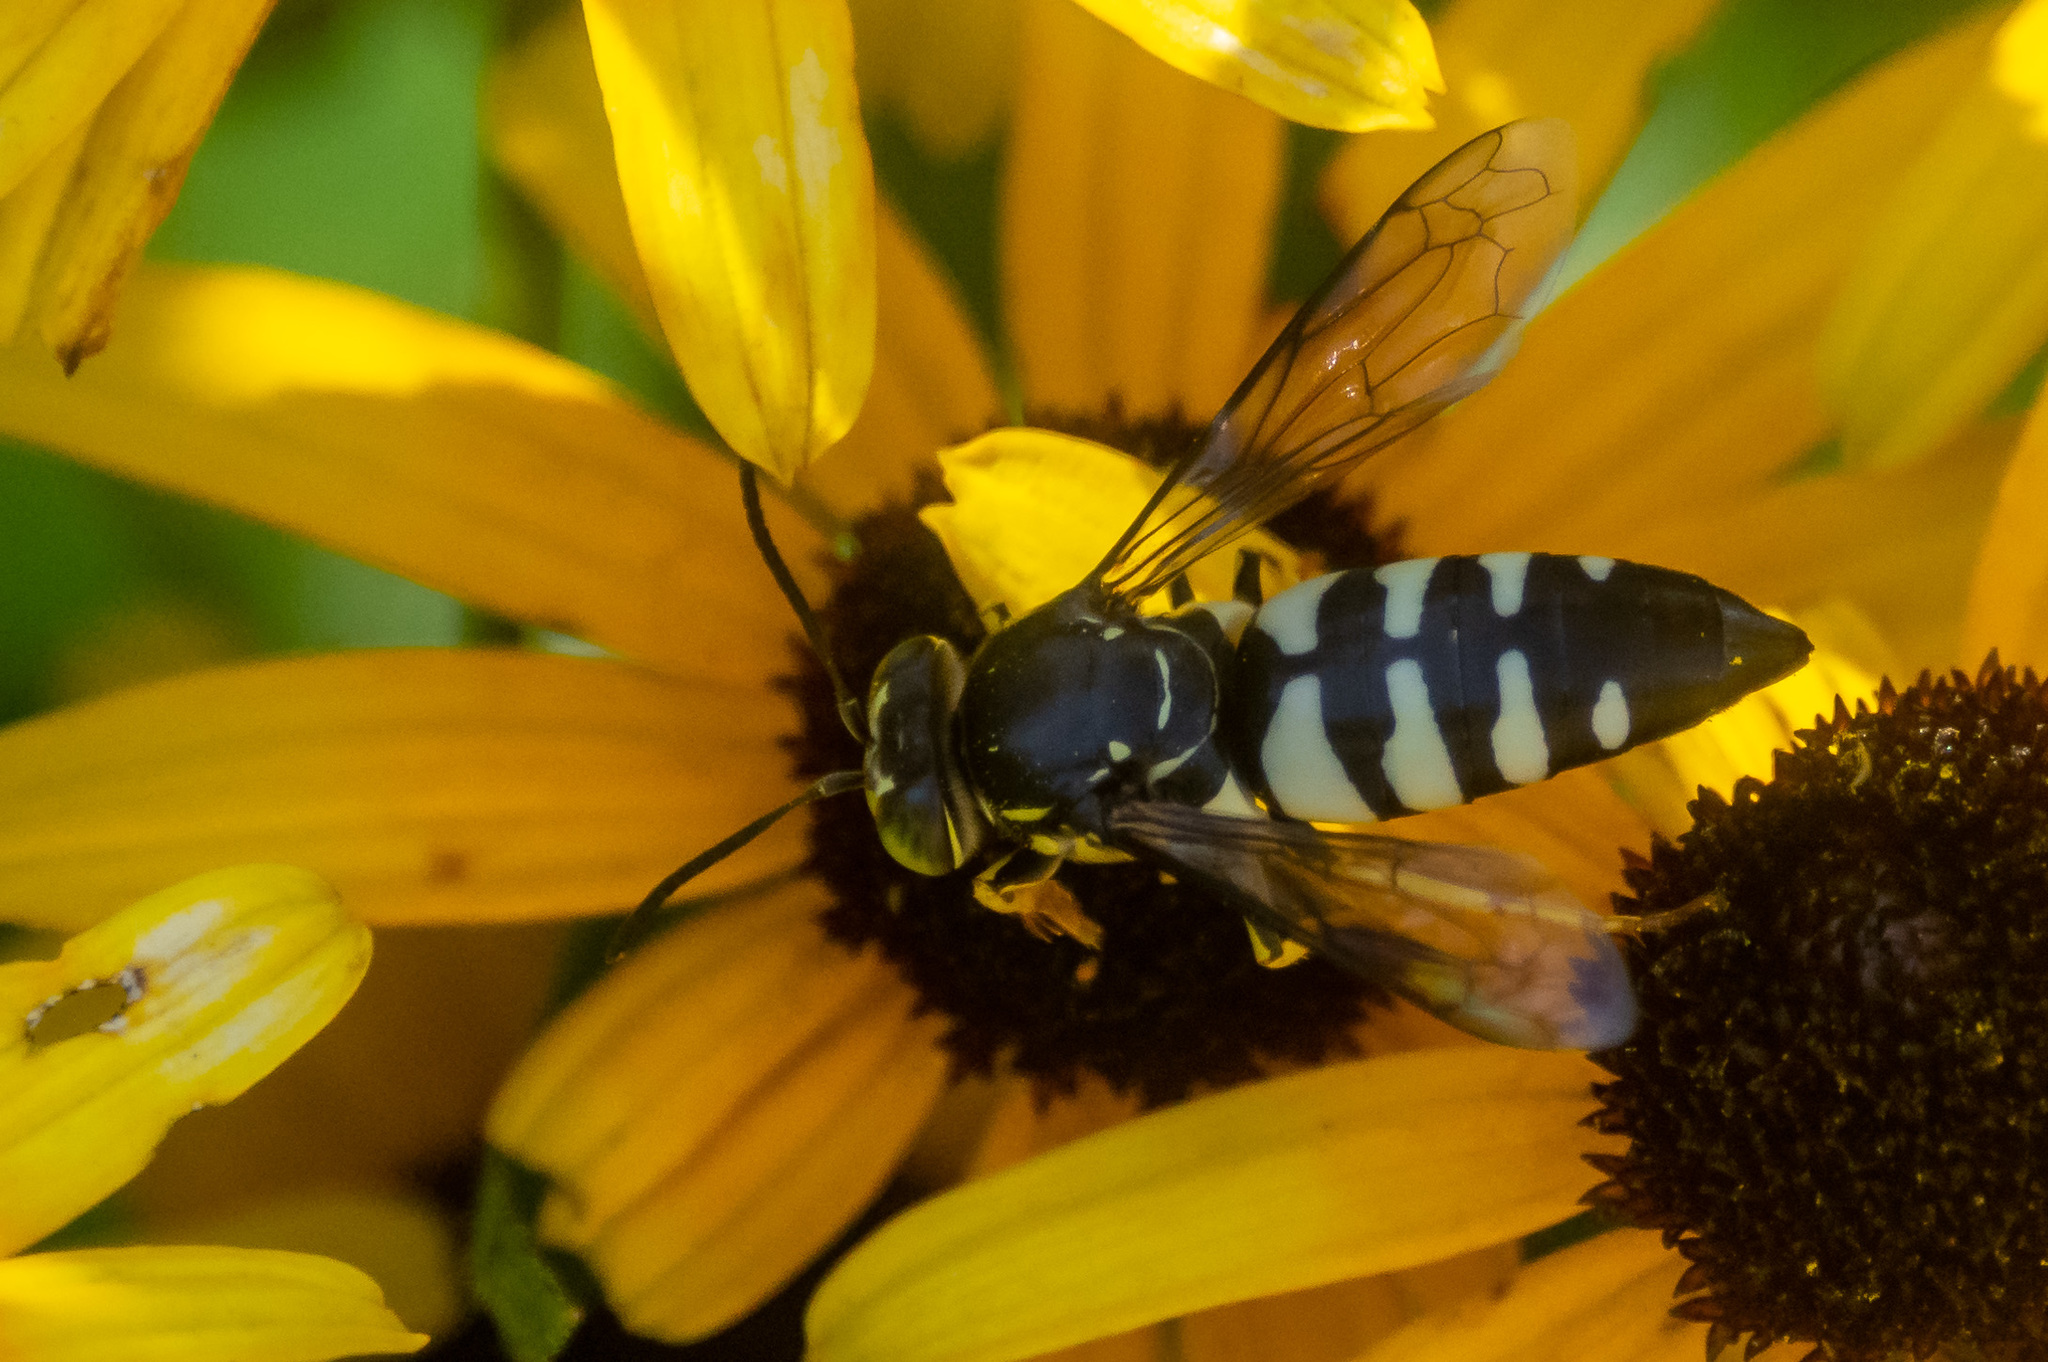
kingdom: Animalia
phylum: Arthropoda
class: Insecta
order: Hymenoptera
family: Crabronidae
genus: Bicyrtes
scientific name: Bicyrtes quadrifasciatus
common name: Four-banded stink bug hunter wasp
